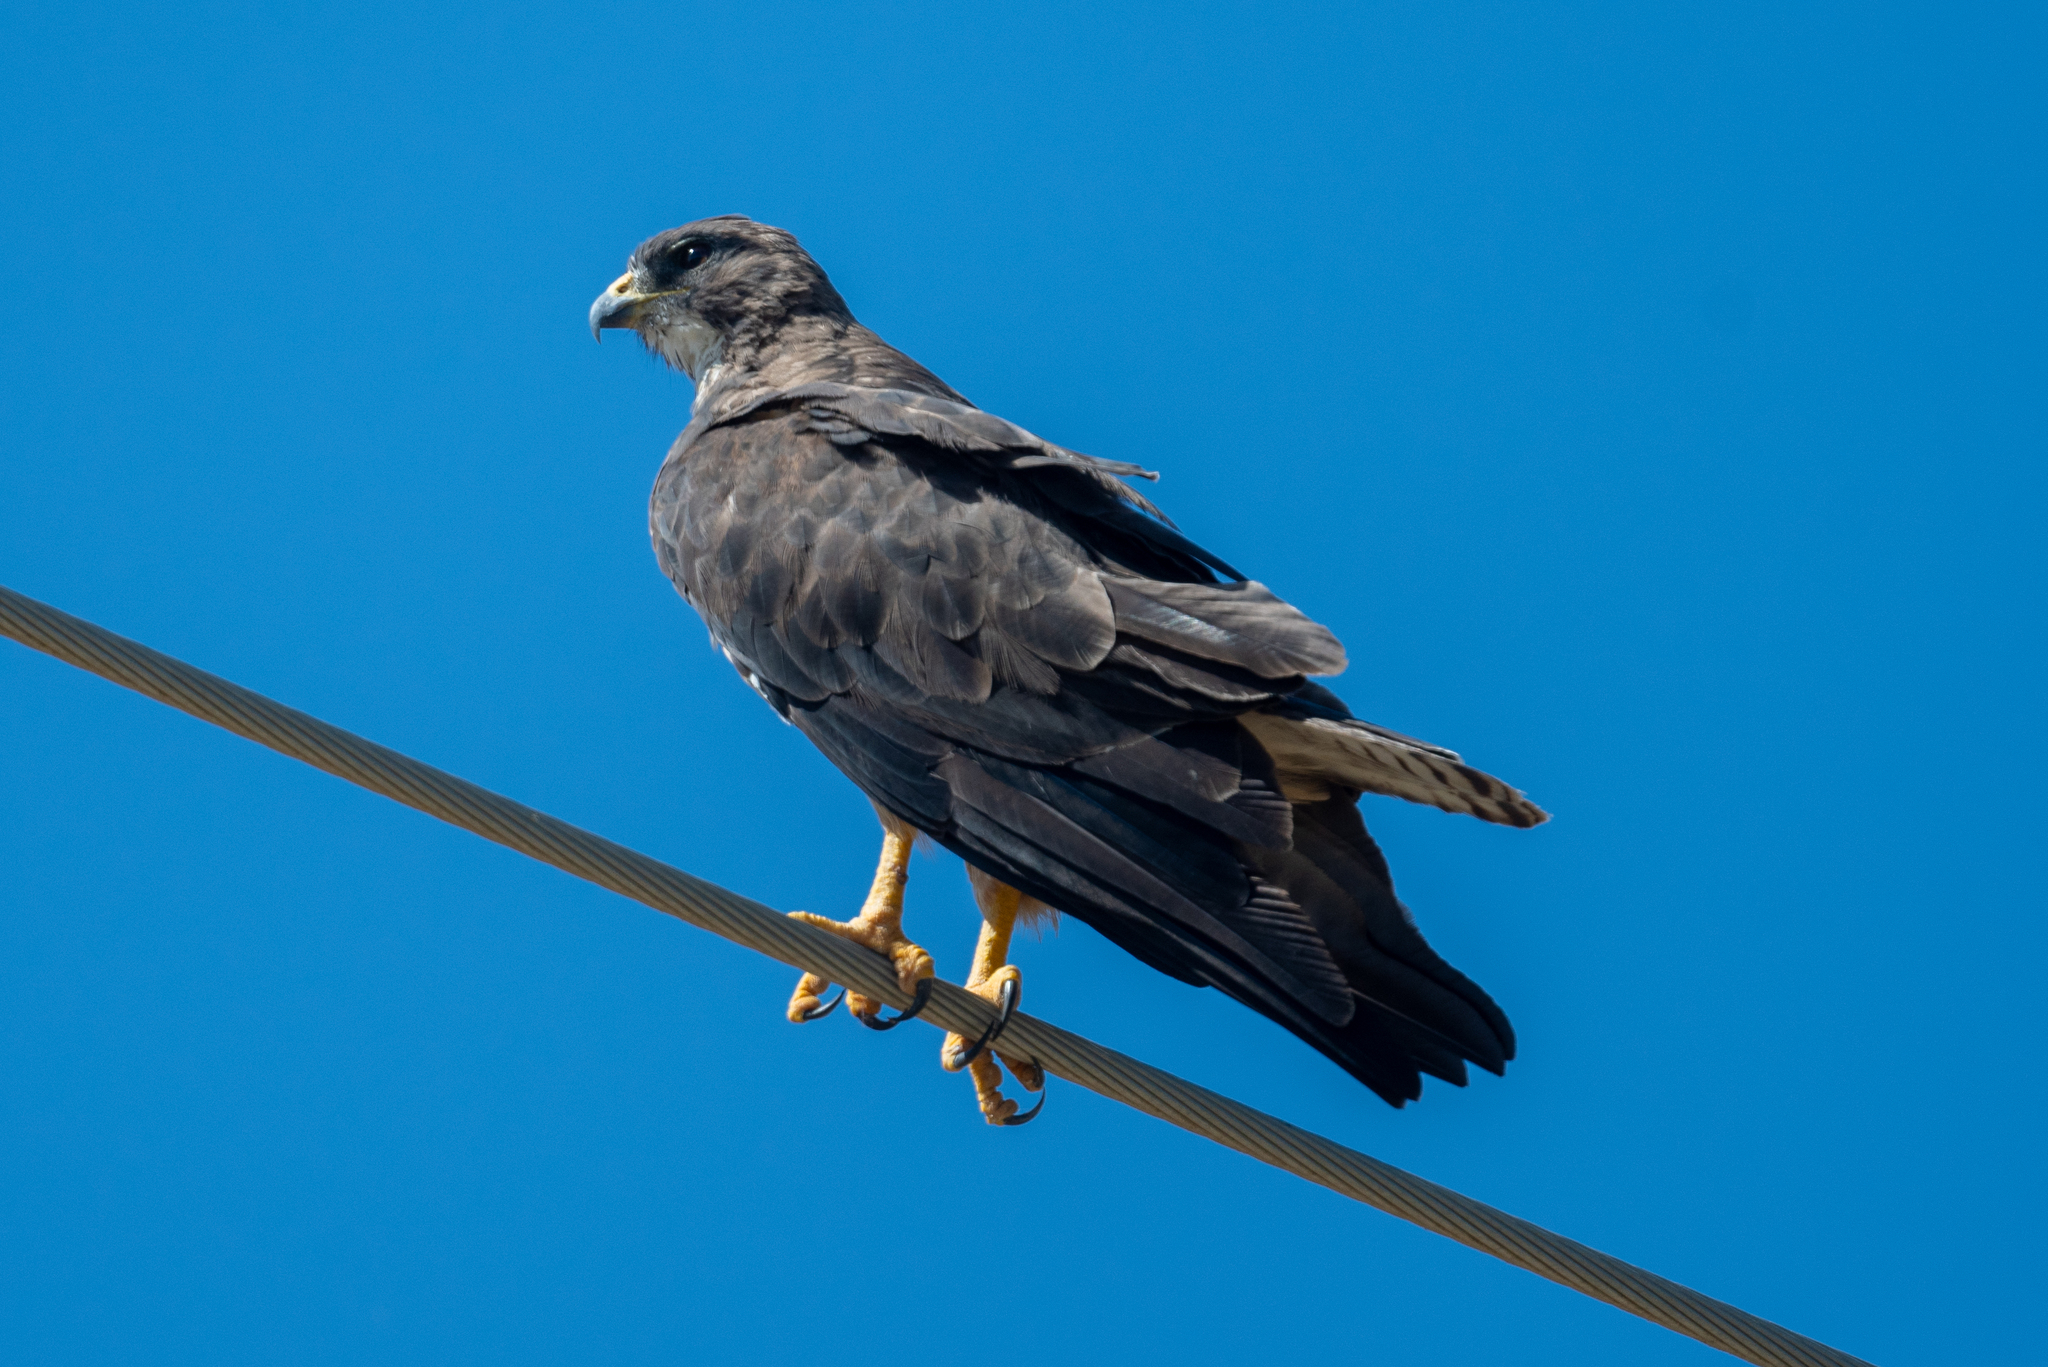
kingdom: Animalia
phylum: Chordata
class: Aves
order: Accipitriformes
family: Accipitridae
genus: Buteo
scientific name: Buteo swainsoni
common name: Swainson's hawk
